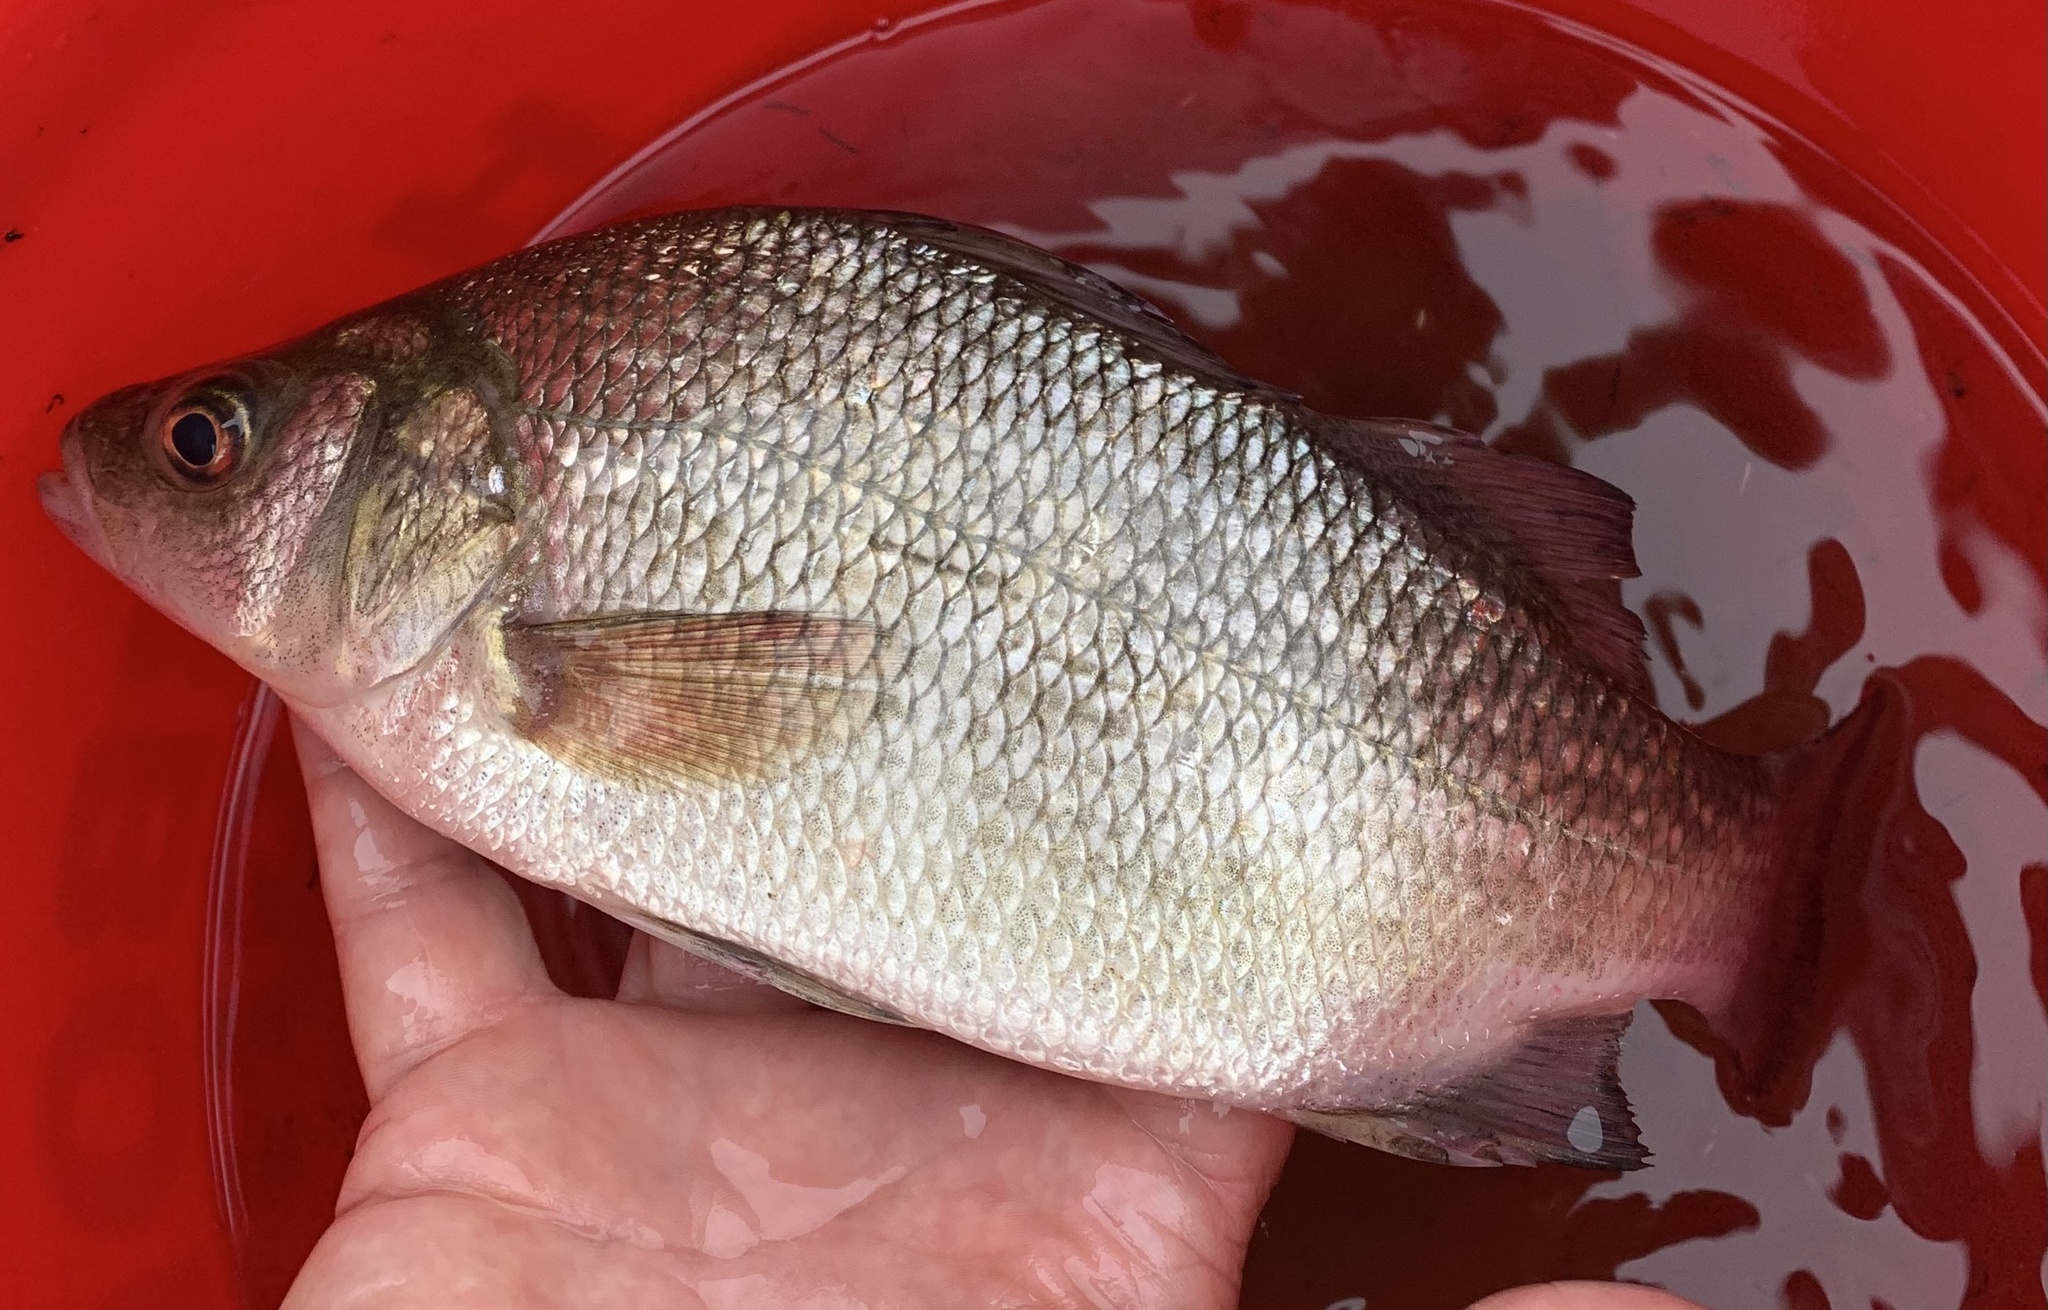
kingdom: Animalia
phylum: Chordata
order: Perciformes
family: Moronidae
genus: Morone
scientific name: Morone americana
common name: White perch
